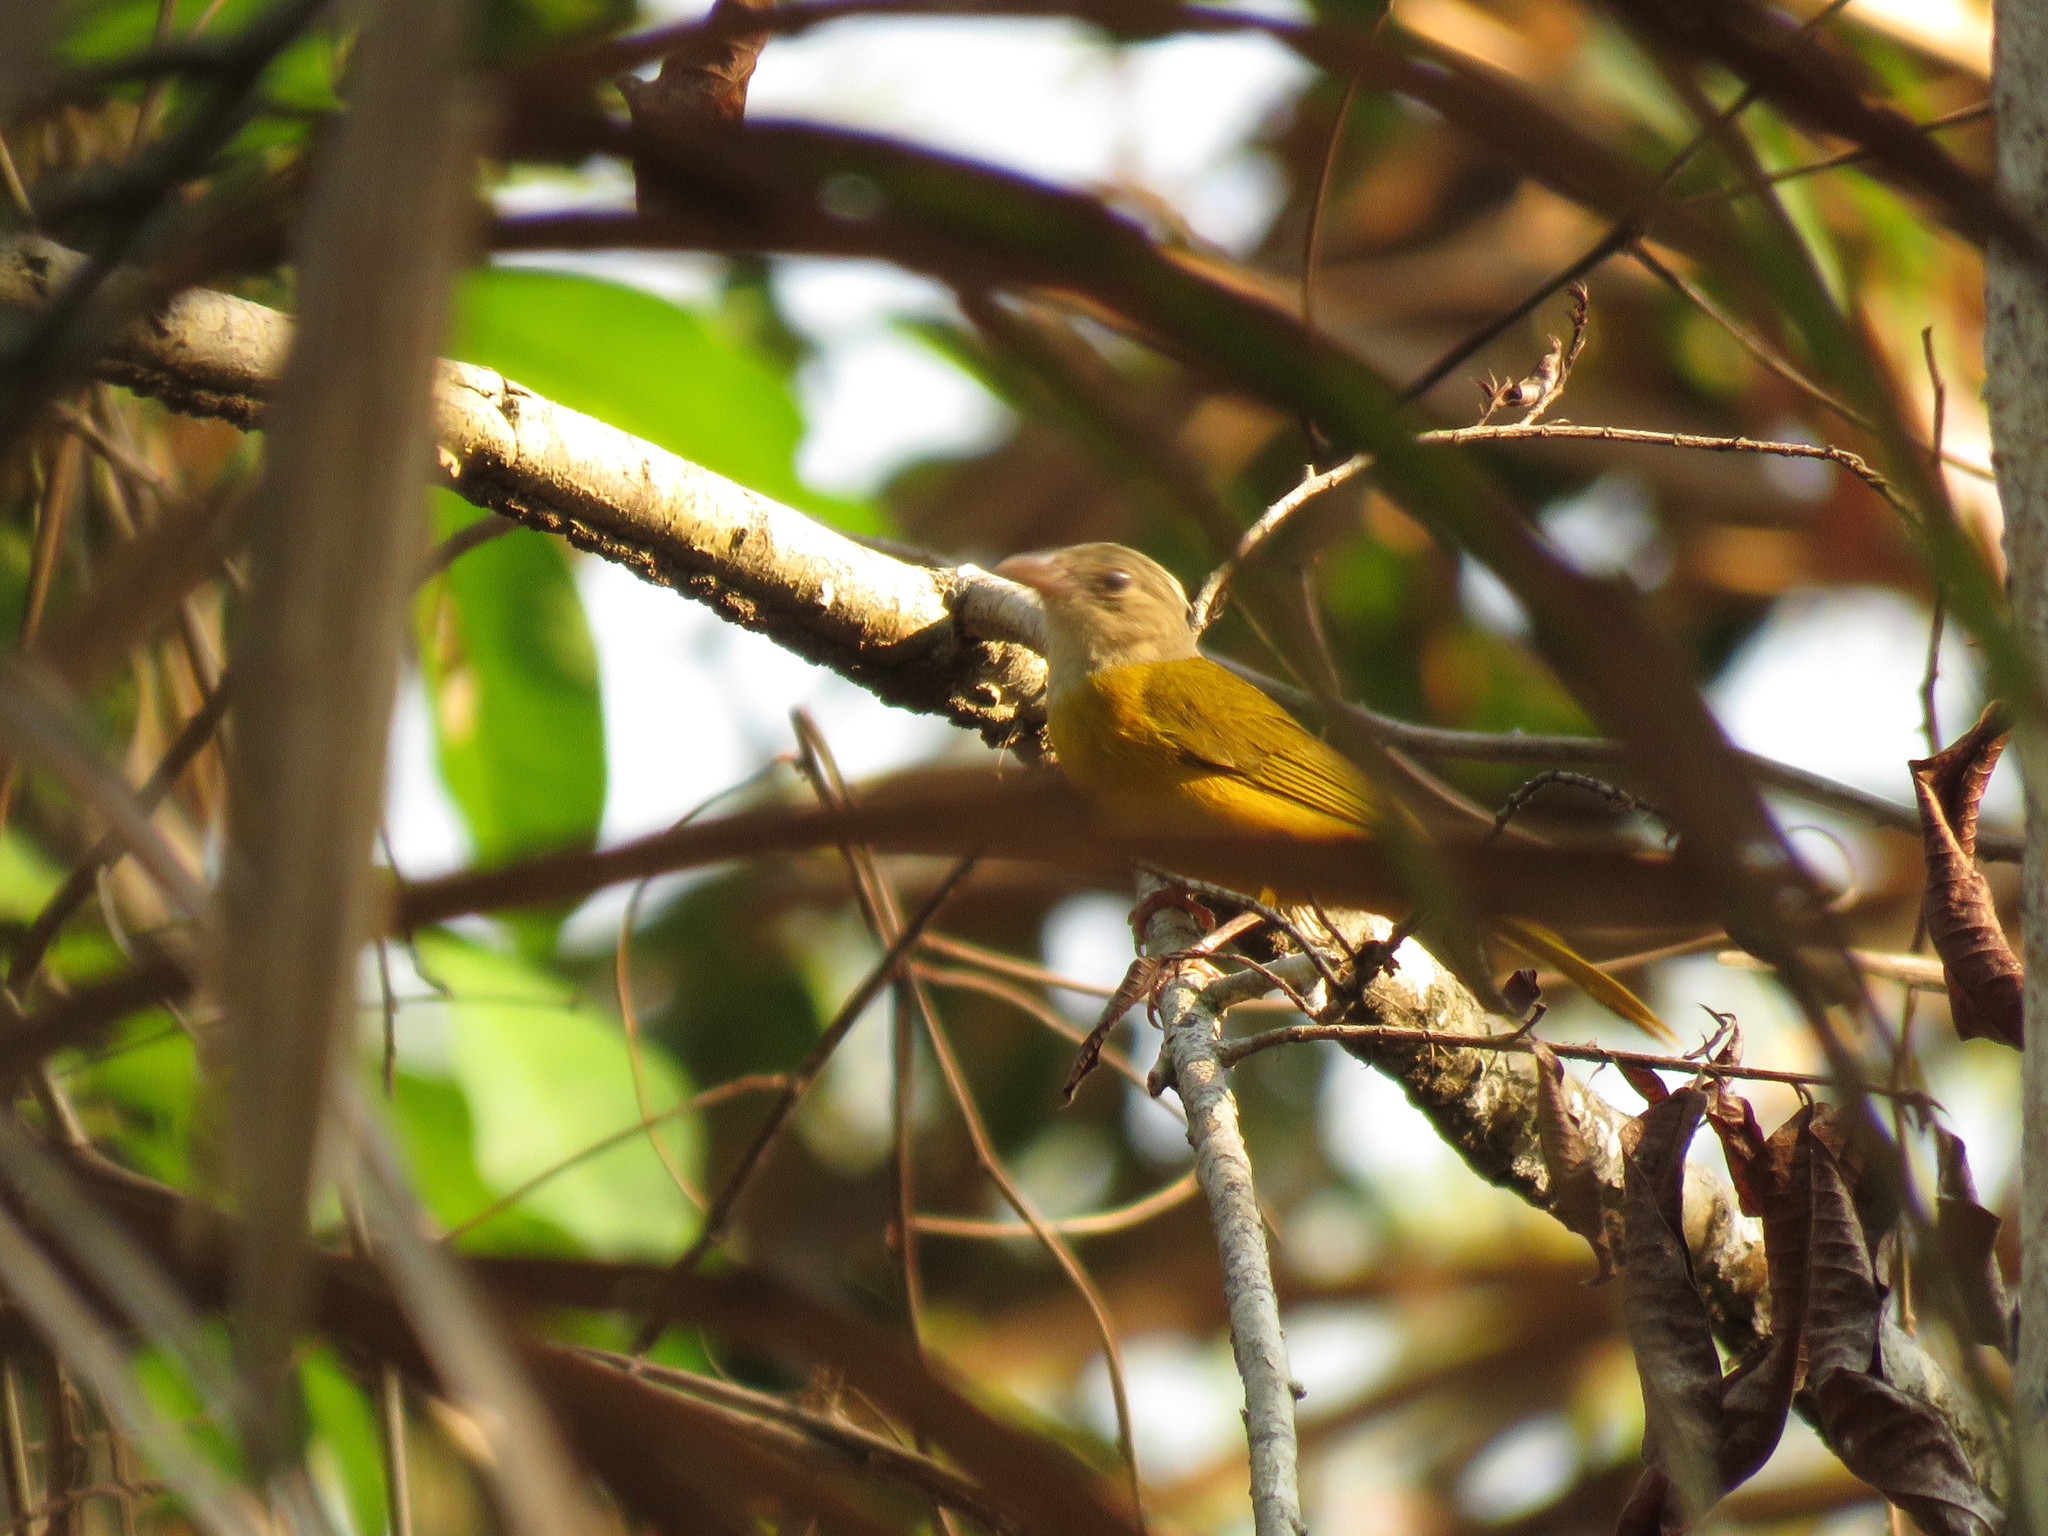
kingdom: Animalia
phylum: Chordata
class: Aves
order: Passeriformes
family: Thraupidae
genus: Eucometis
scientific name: Eucometis penicillata
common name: Grey-headed tanager
